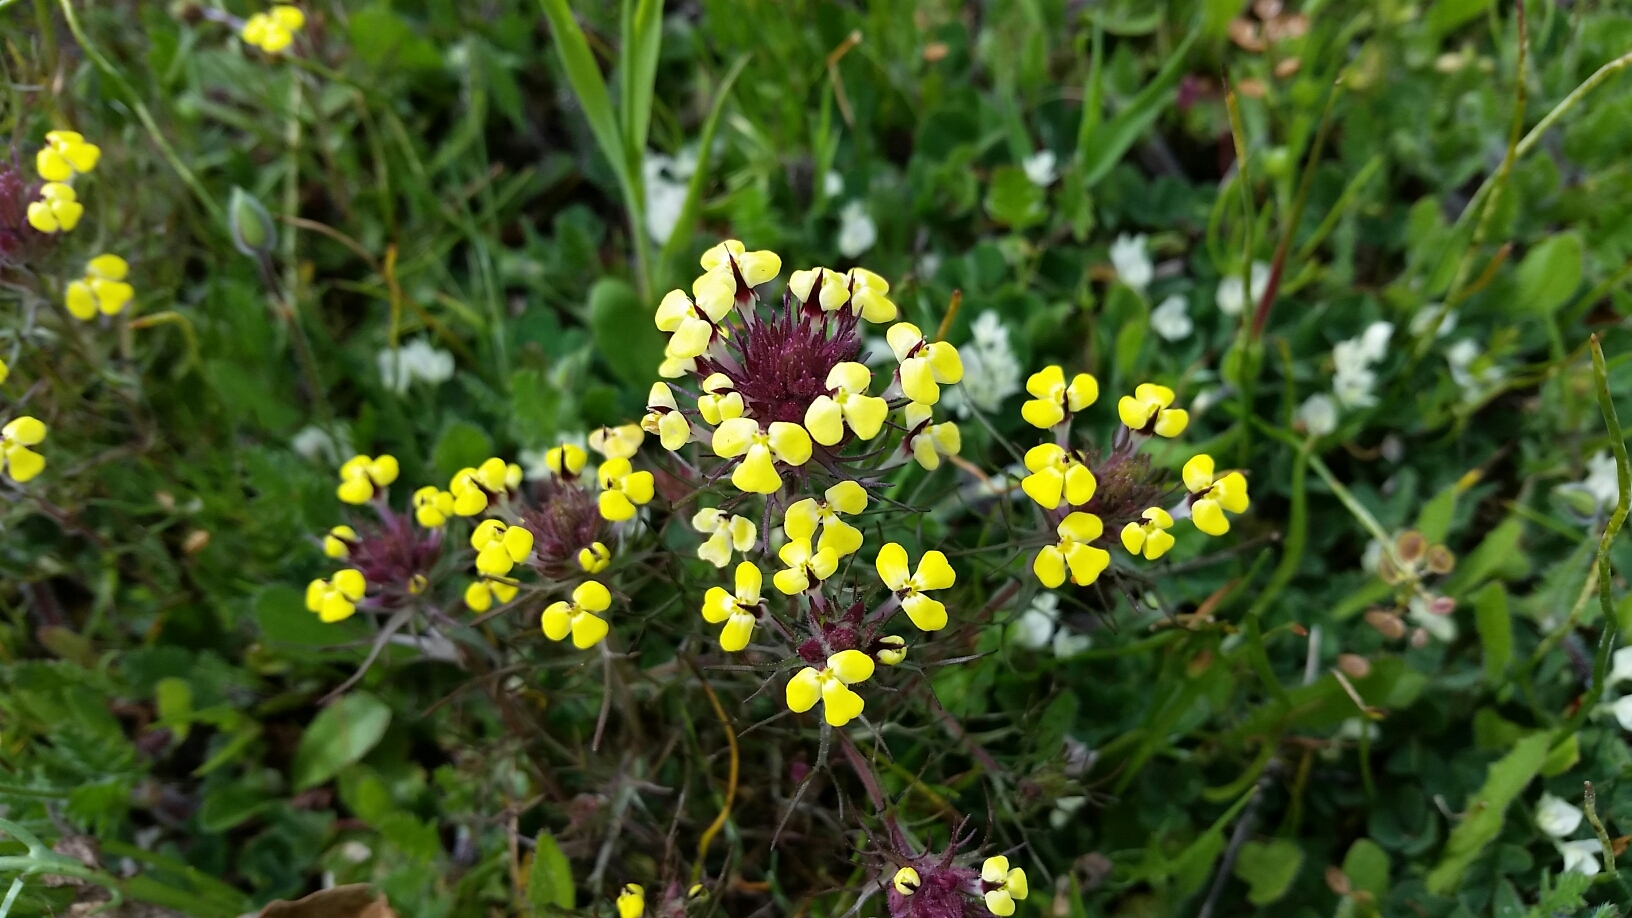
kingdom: Plantae
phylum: Tracheophyta
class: Magnoliopsida
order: Lamiales
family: Orobanchaceae
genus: Triphysaria
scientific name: Triphysaria eriantha
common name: Johnny-tuck
